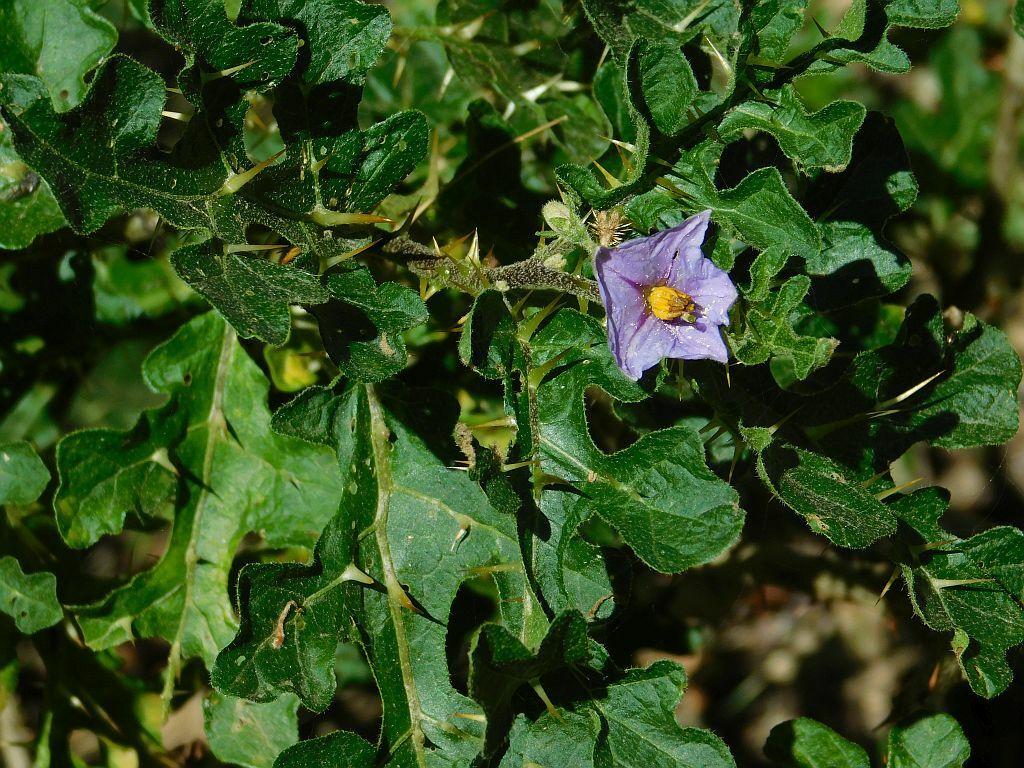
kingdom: Plantae
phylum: Tracheophyta
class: Magnoliopsida
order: Solanales
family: Solanaceae
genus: Solanum
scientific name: Solanum linnaeanum
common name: Nightshade
